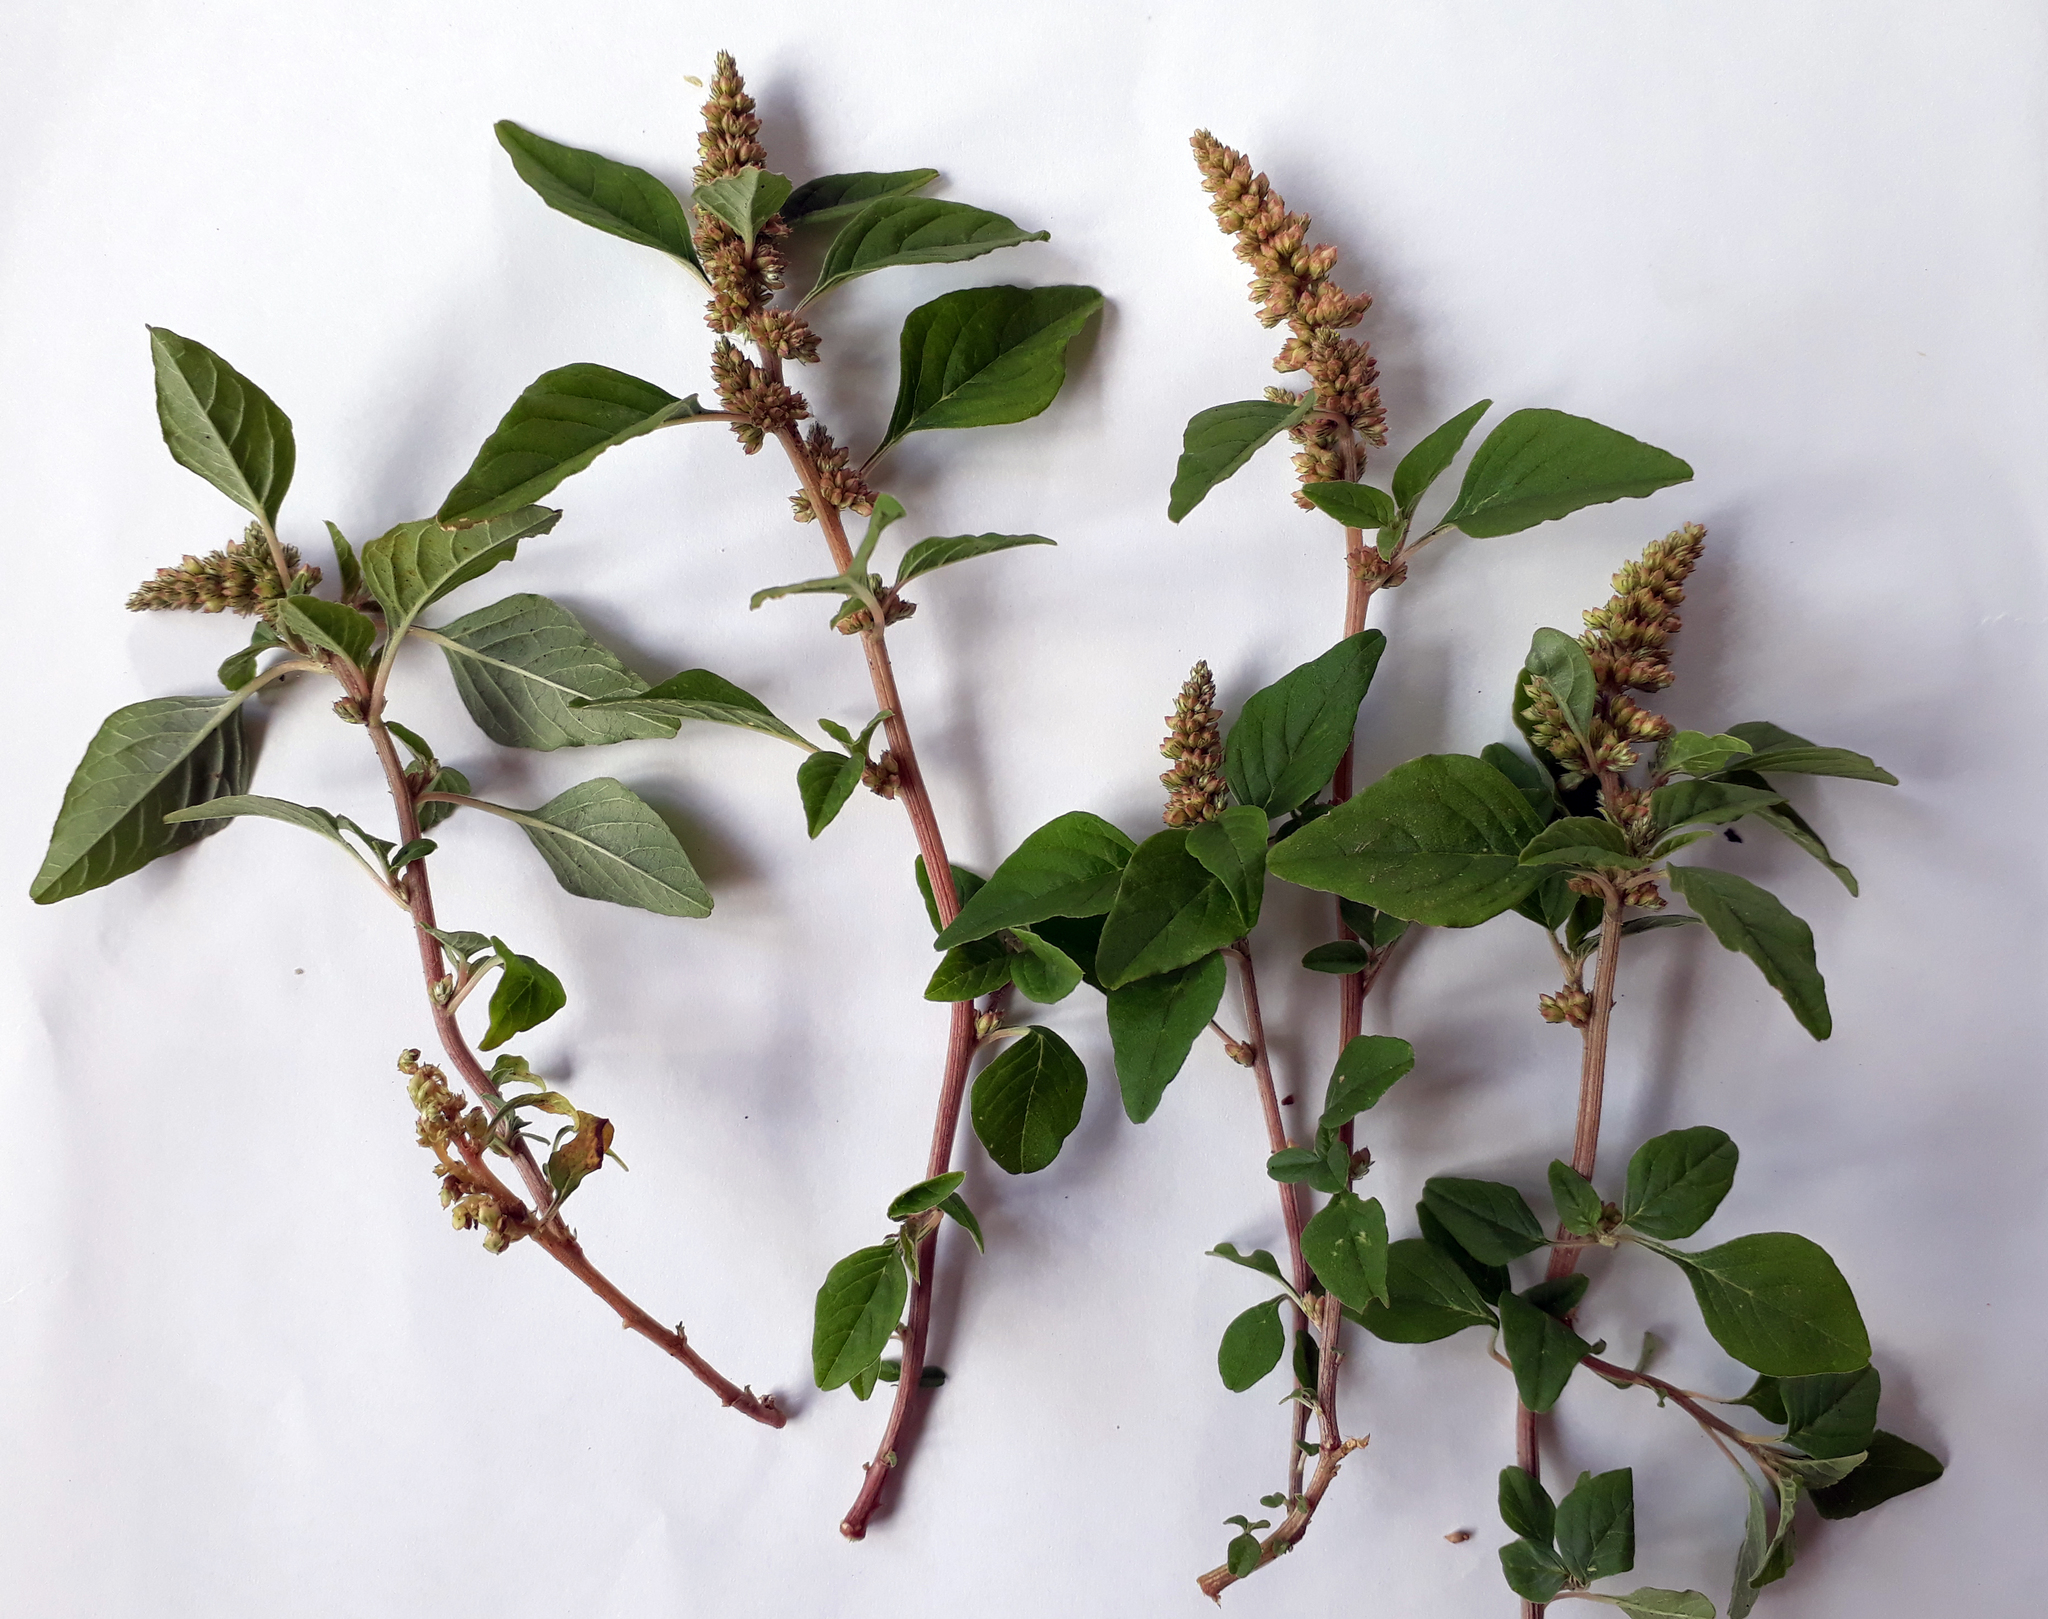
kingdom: Plantae
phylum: Tracheophyta
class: Magnoliopsida
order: Caryophyllales
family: Amaranthaceae
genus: Amaranthus
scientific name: Amaranthus deflexus
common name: Perennial pigweed
